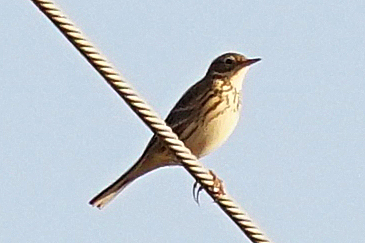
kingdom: Animalia
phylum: Chordata
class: Aves
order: Passeriformes
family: Motacillidae
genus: Anthus
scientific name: Anthus pratensis
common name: Meadow pipit
